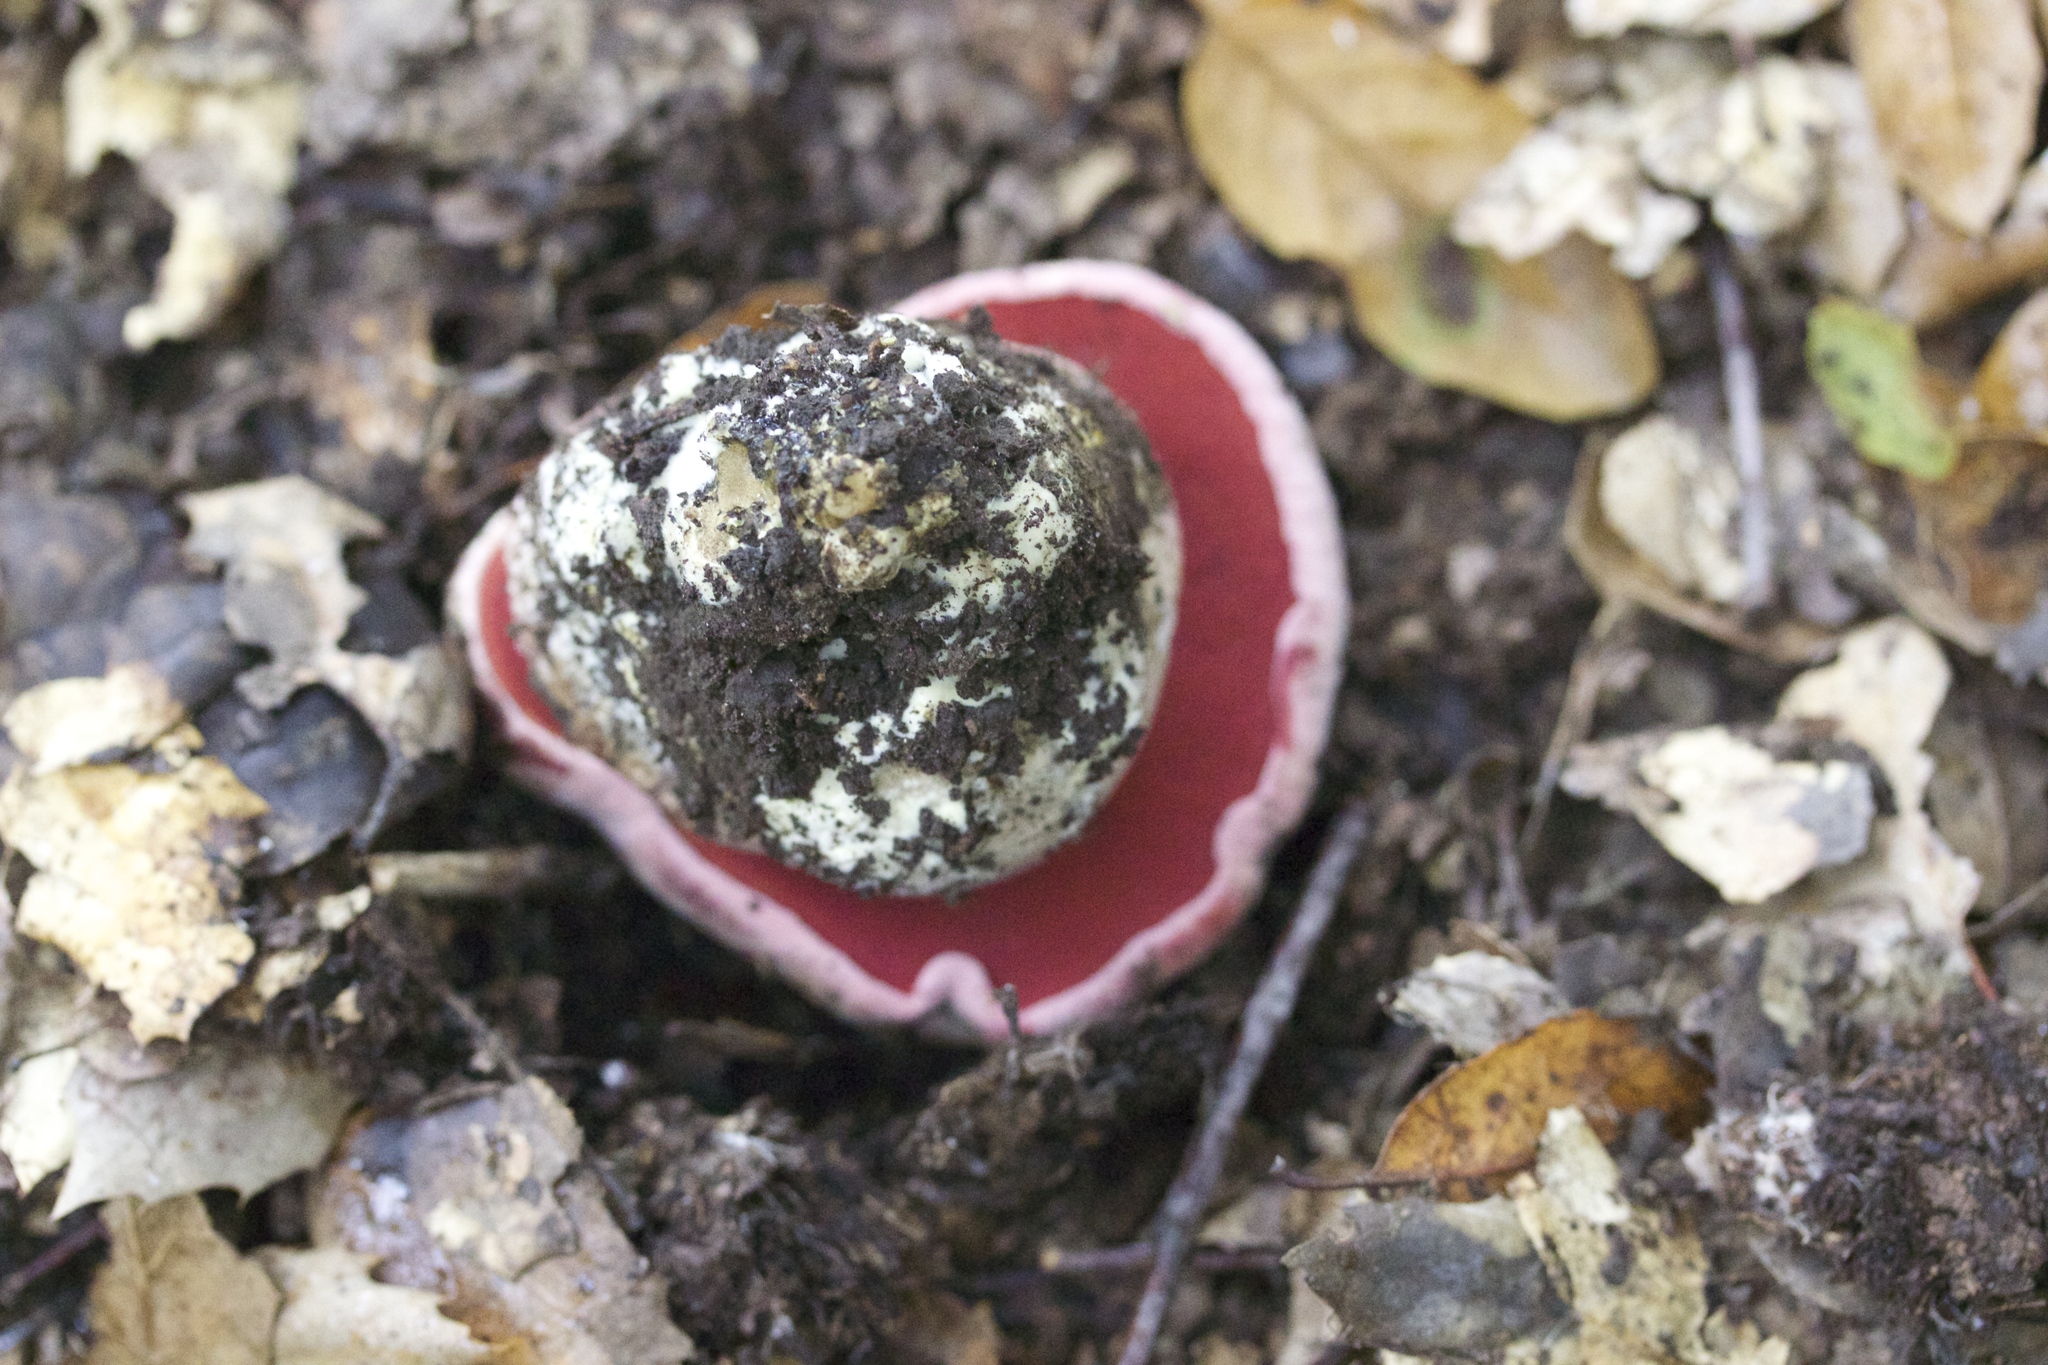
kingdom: Fungi
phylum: Basidiomycota
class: Agaricomycetes
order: Boletales
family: Boletaceae
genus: Rubroboletus
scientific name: Rubroboletus eastwoodiae
